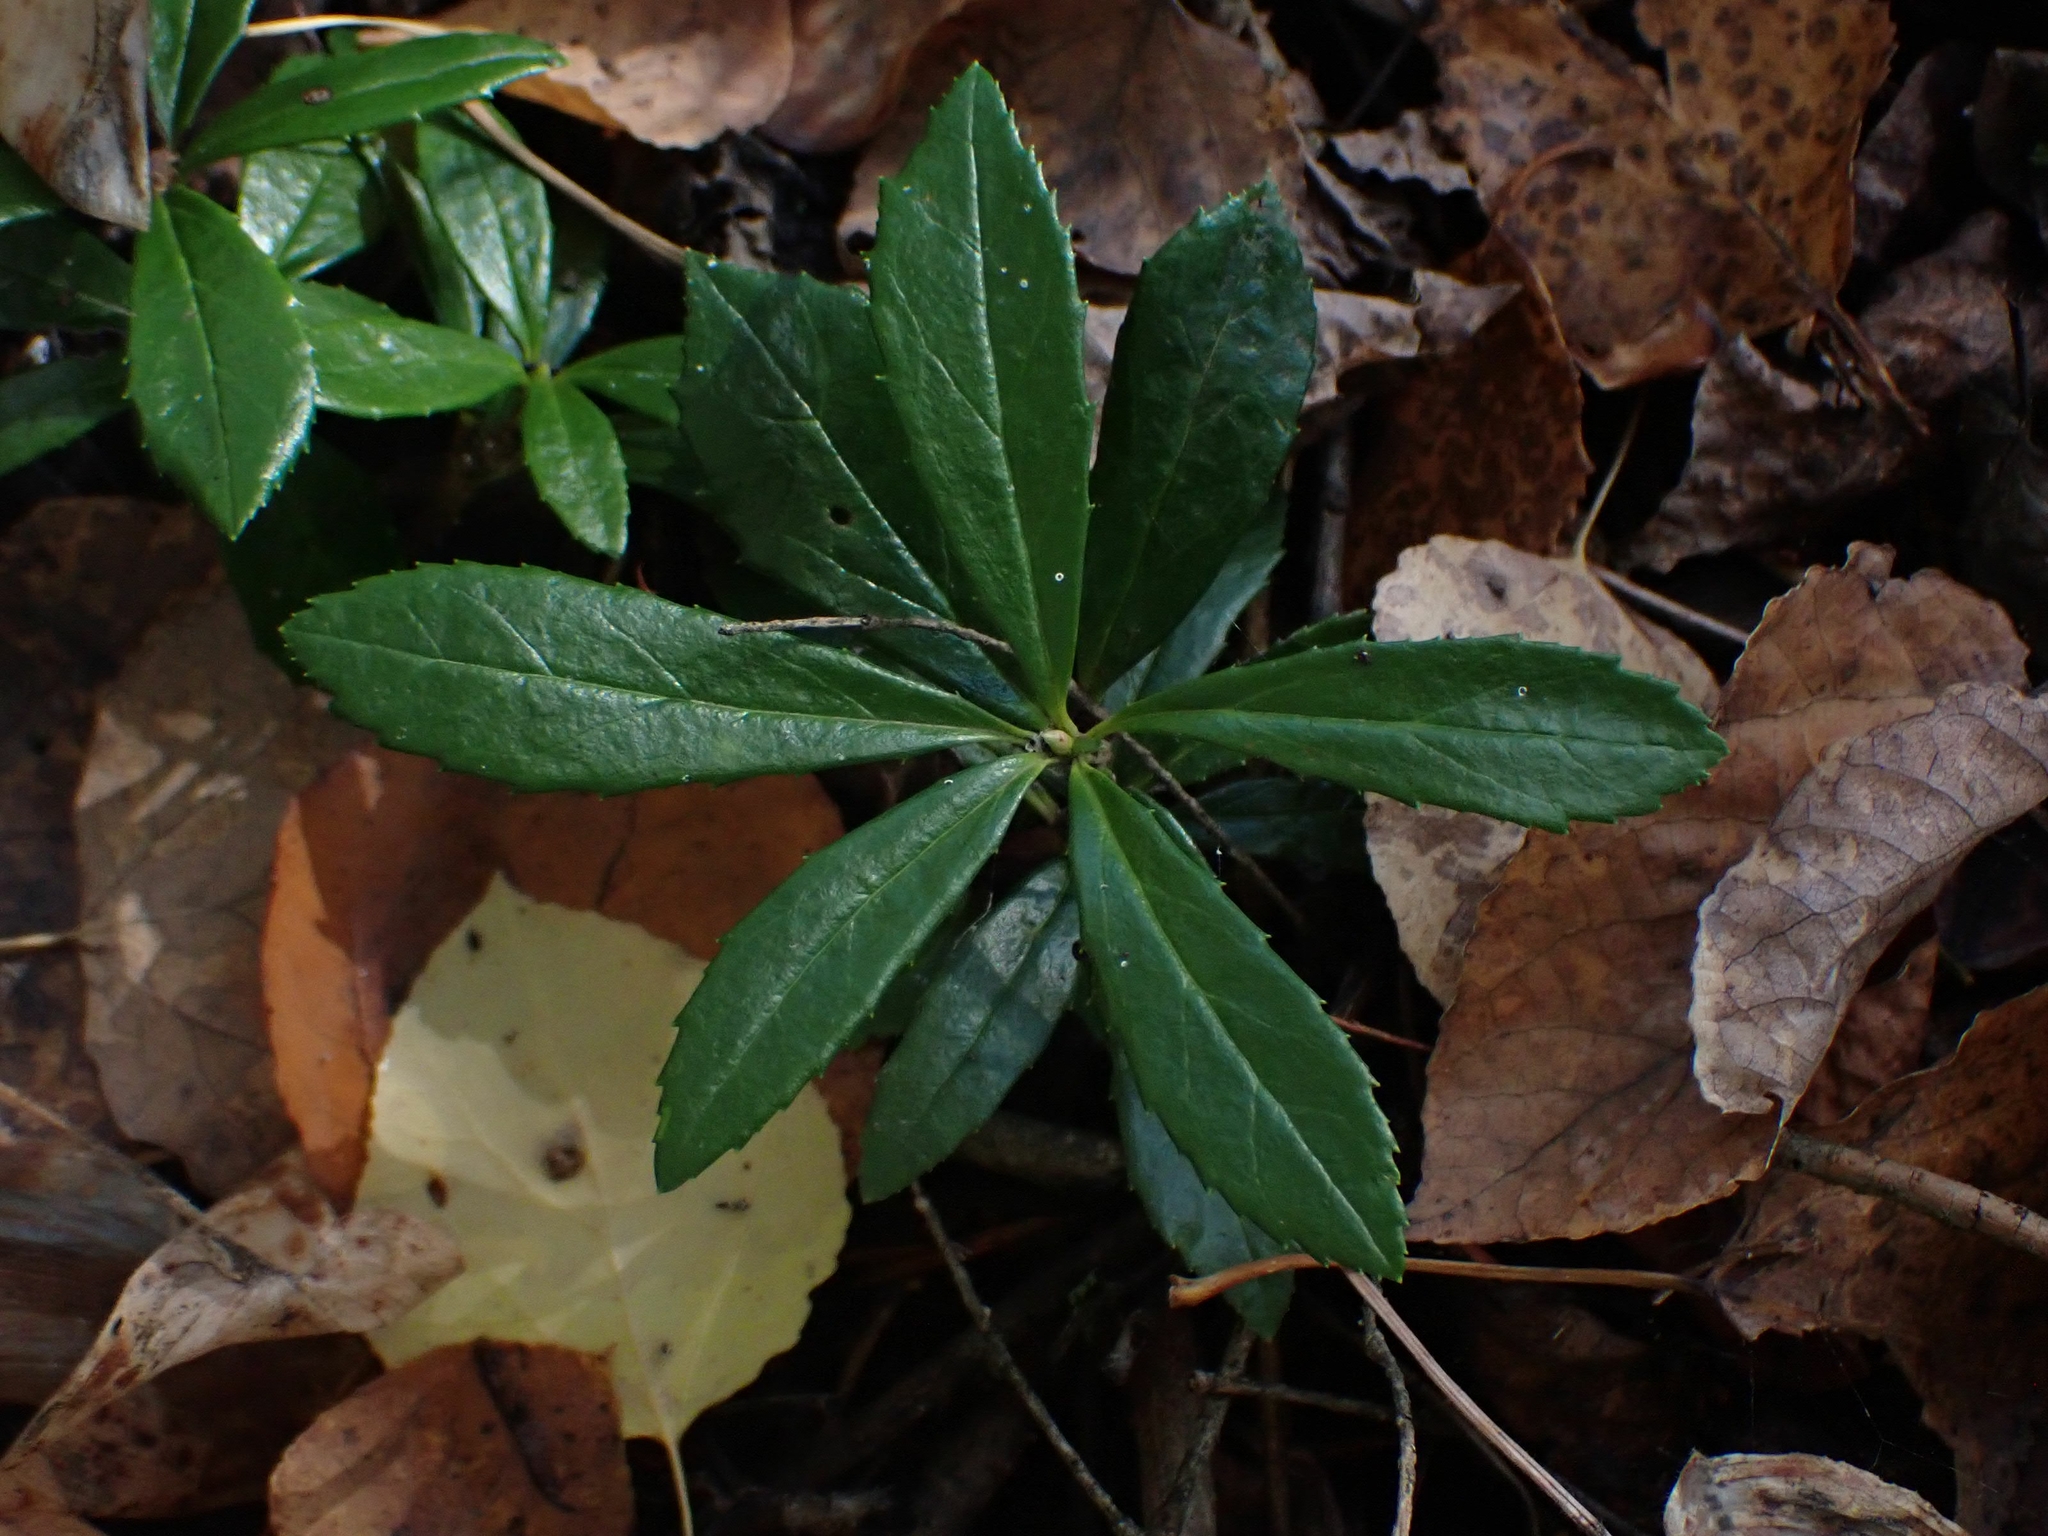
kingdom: Plantae
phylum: Tracheophyta
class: Magnoliopsida
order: Ericales
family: Ericaceae
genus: Chimaphila
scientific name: Chimaphila umbellata
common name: Pipsissewa
